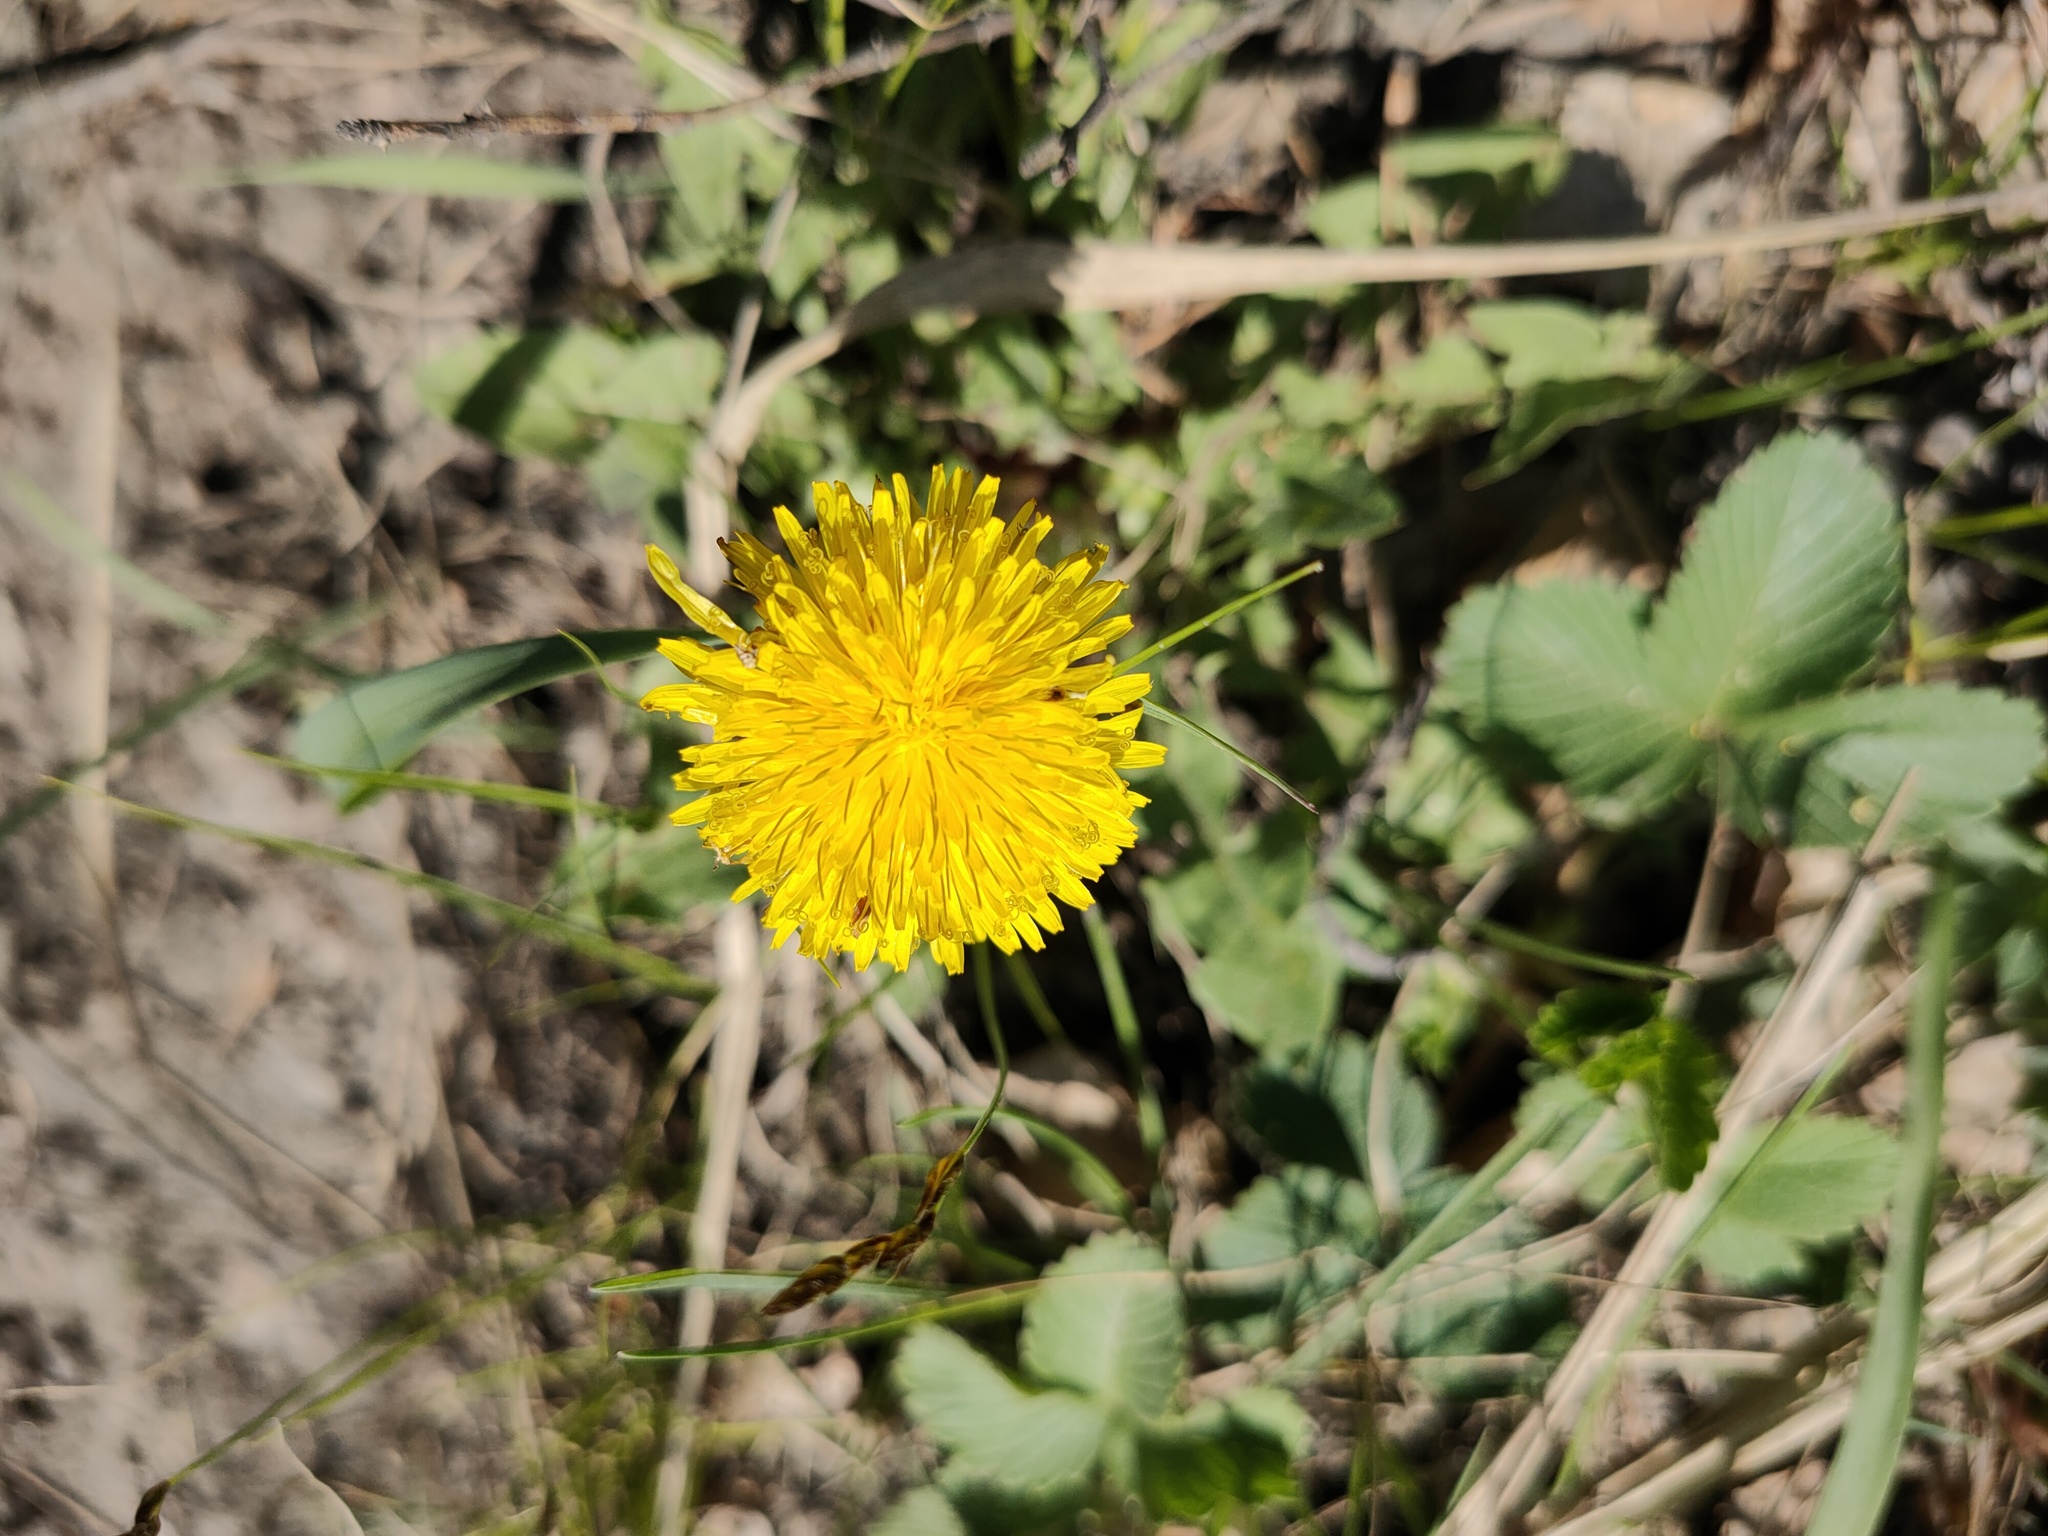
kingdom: Plantae
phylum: Tracheophyta
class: Magnoliopsida
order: Asterales
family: Asteraceae
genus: Taraxacum
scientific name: Taraxacum officinale
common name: Common dandelion
